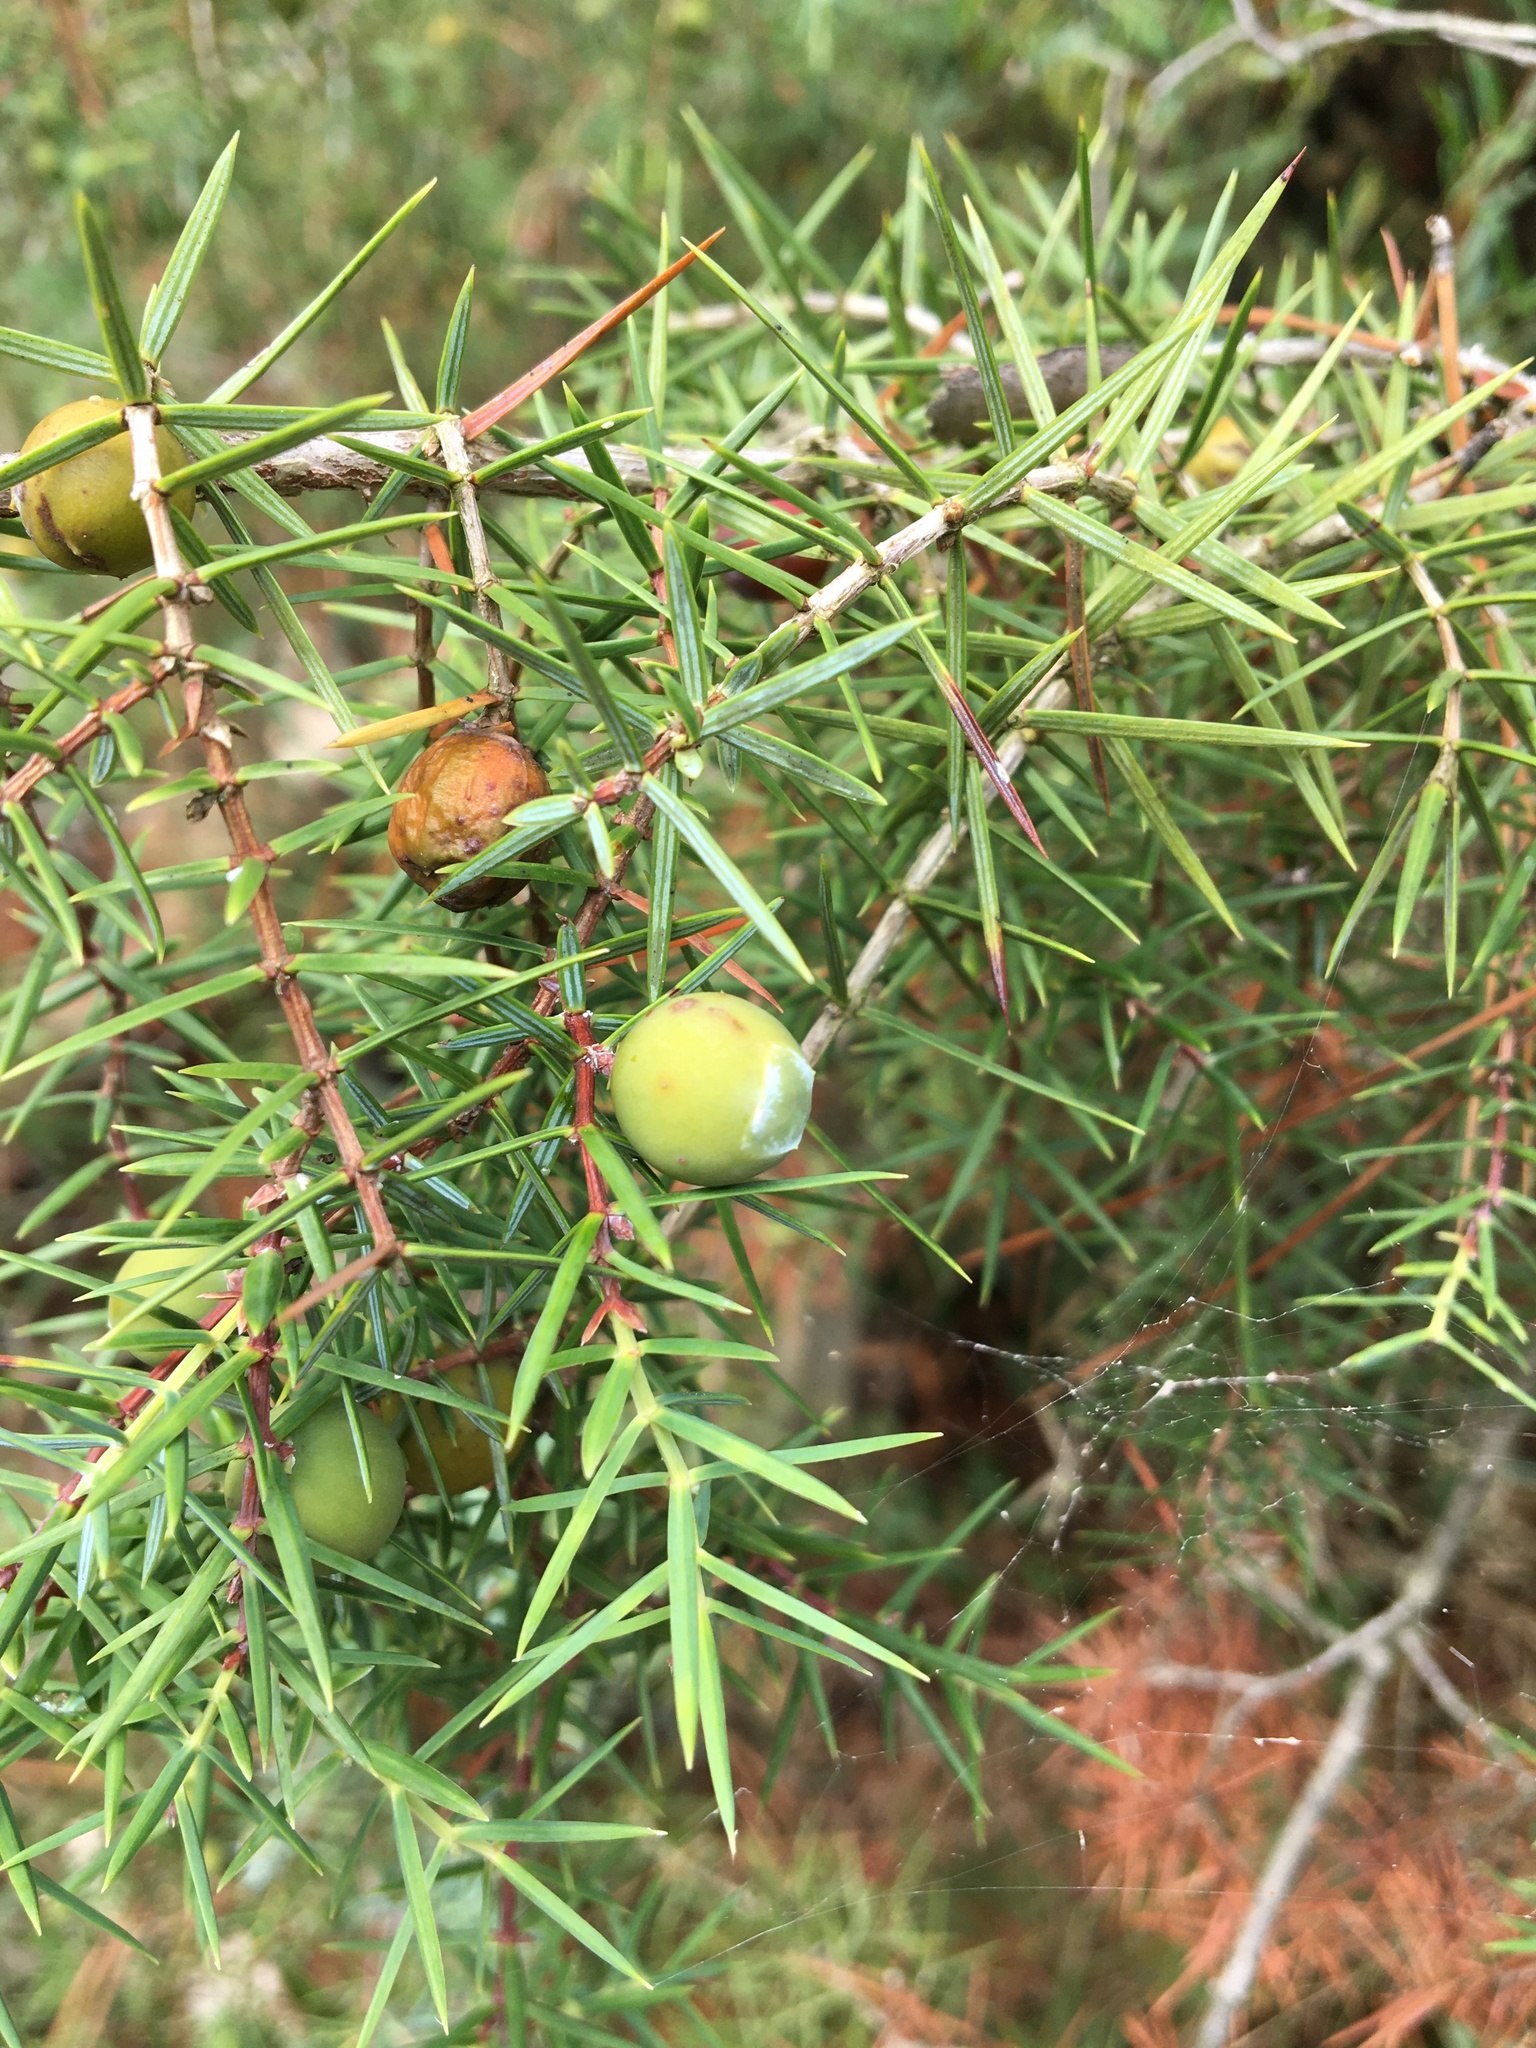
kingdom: Plantae
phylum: Tracheophyta
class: Pinopsida
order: Pinales
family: Cupressaceae
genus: Juniperus
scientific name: Juniperus oxycedrus
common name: Prickly juniper
